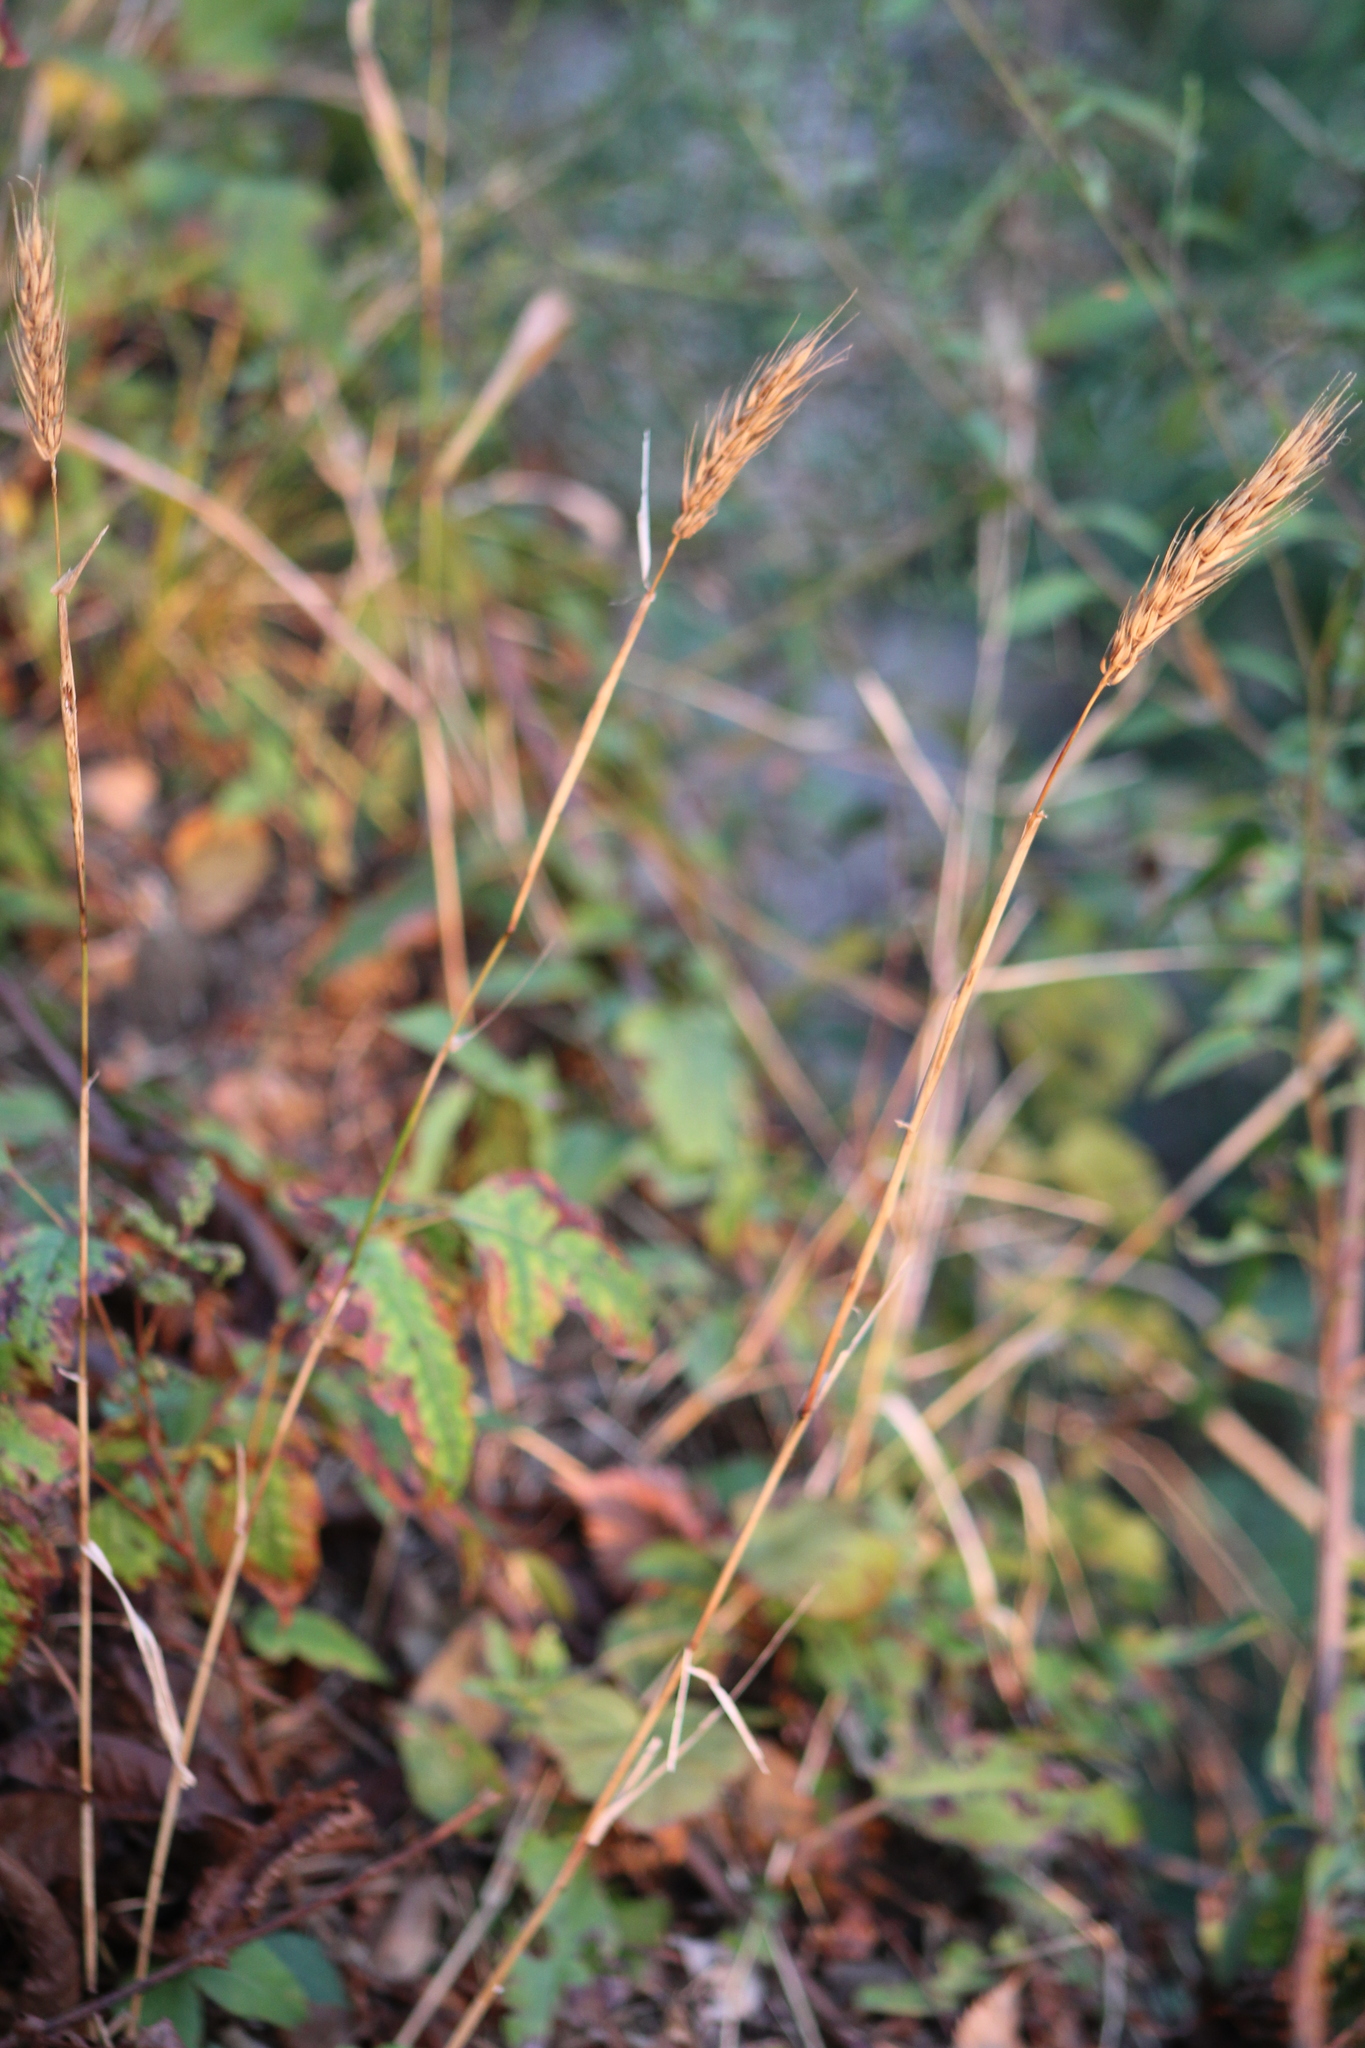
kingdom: Plantae
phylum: Tracheophyta
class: Liliopsida
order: Poales
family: Poaceae
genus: Elymus
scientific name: Elymus virginicus
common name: Common eastern wildrye
